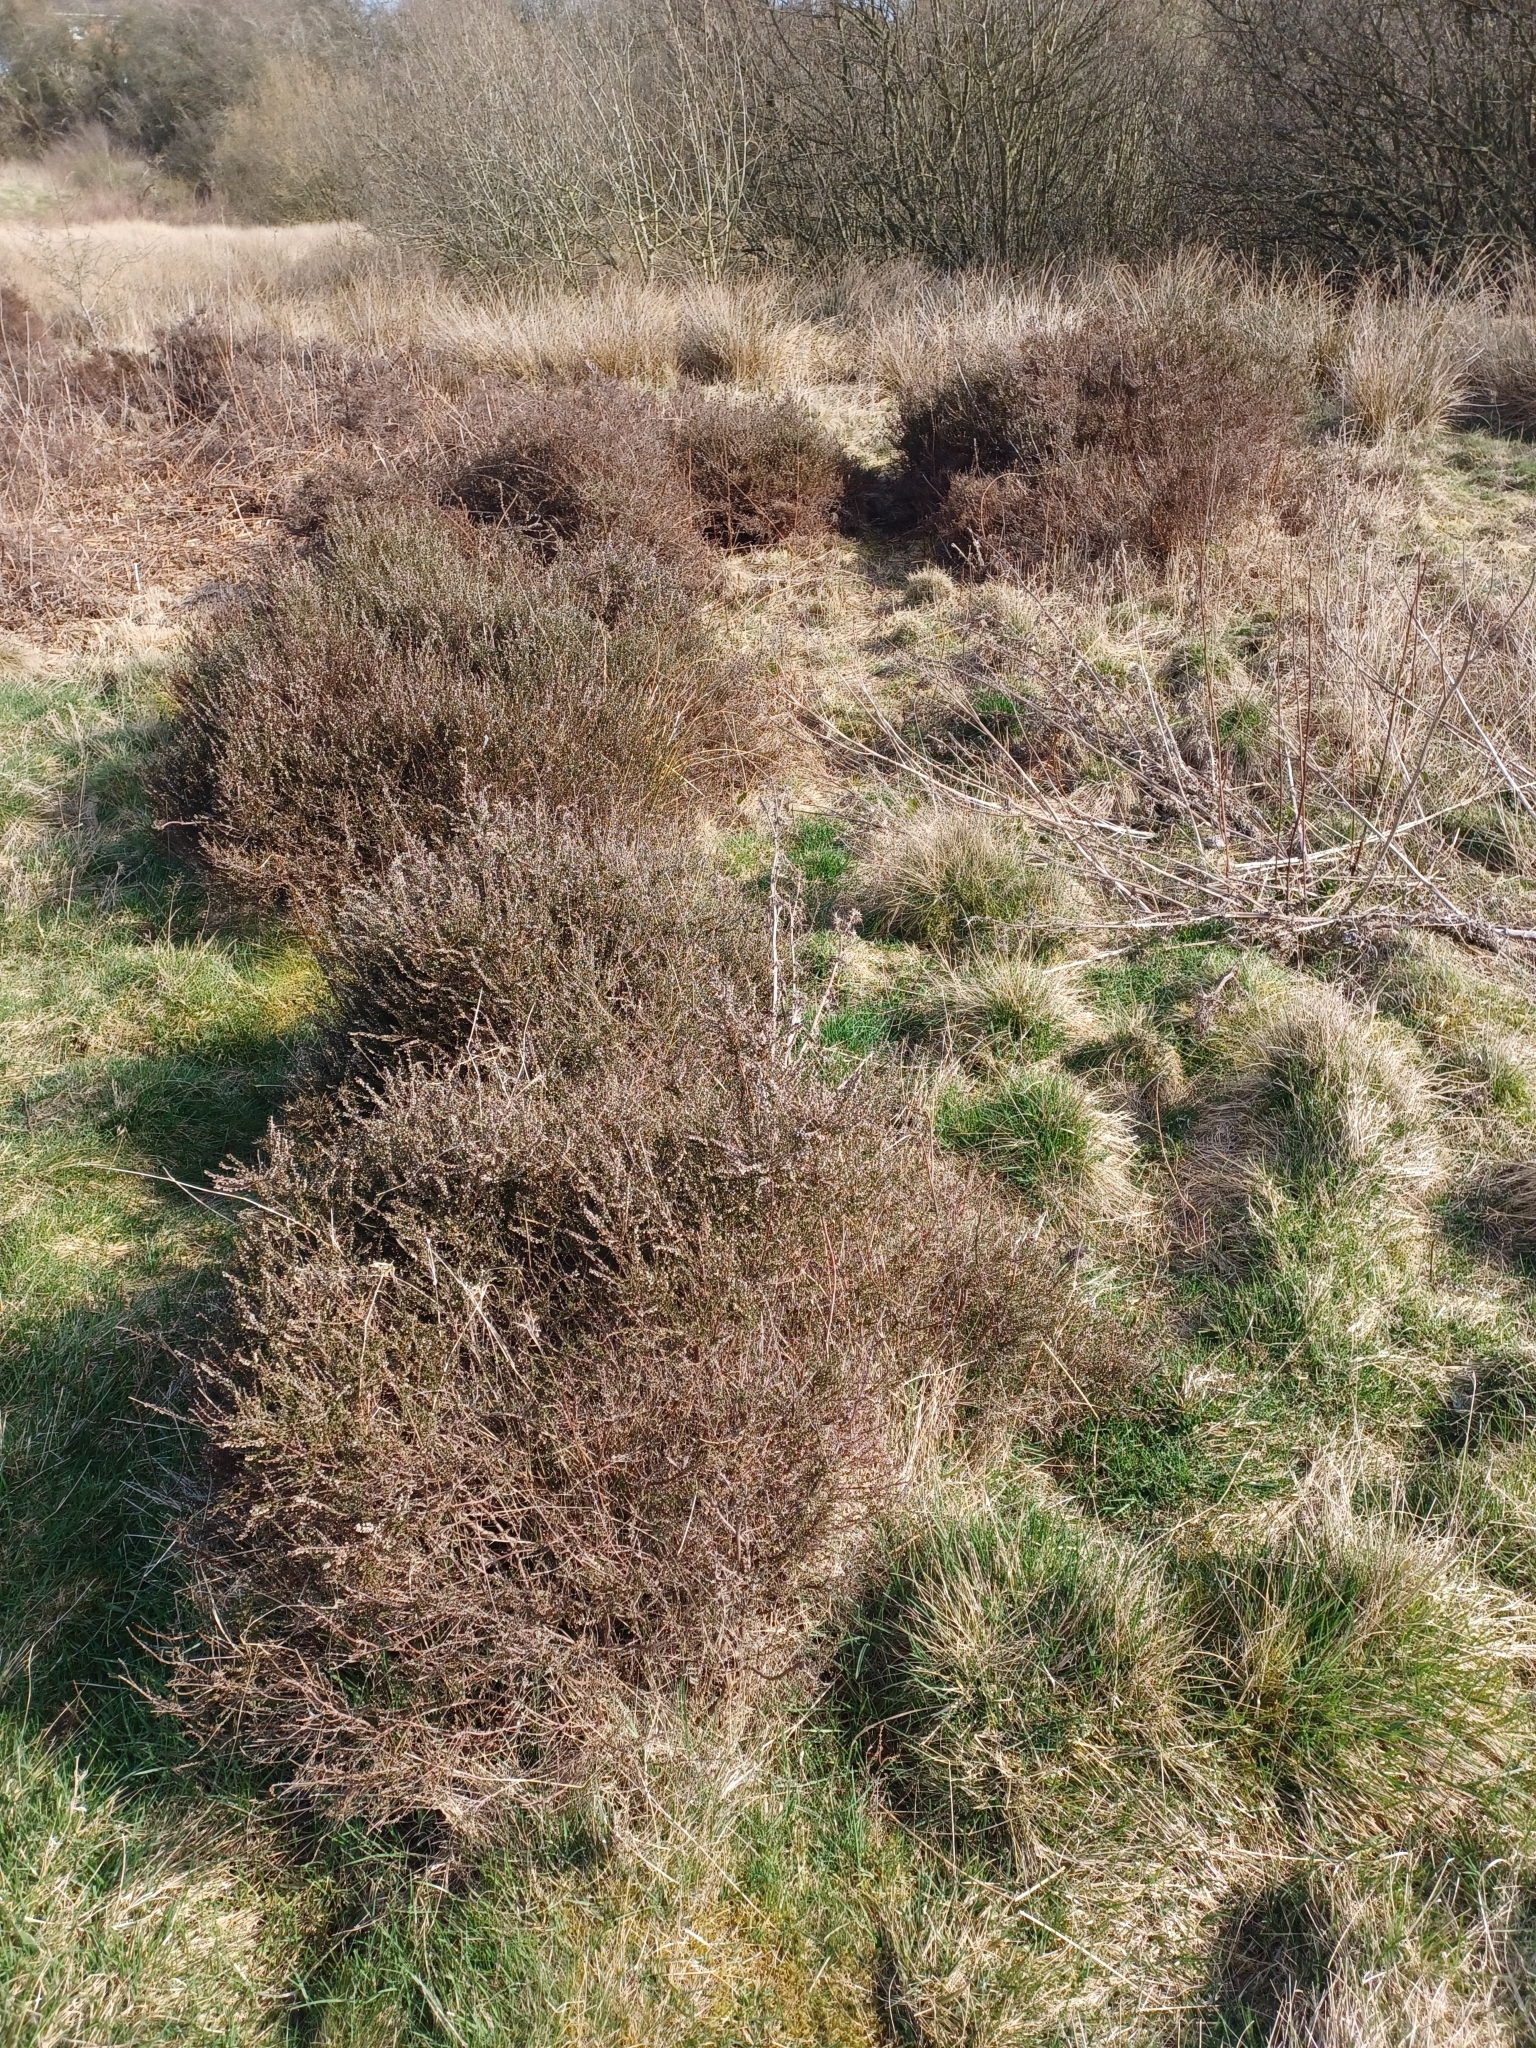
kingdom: Plantae
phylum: Tracheophyta
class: Magnoliopsida
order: Ericales
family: Ericaceae
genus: Calluna
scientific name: Calluna vulgaris
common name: Heather
